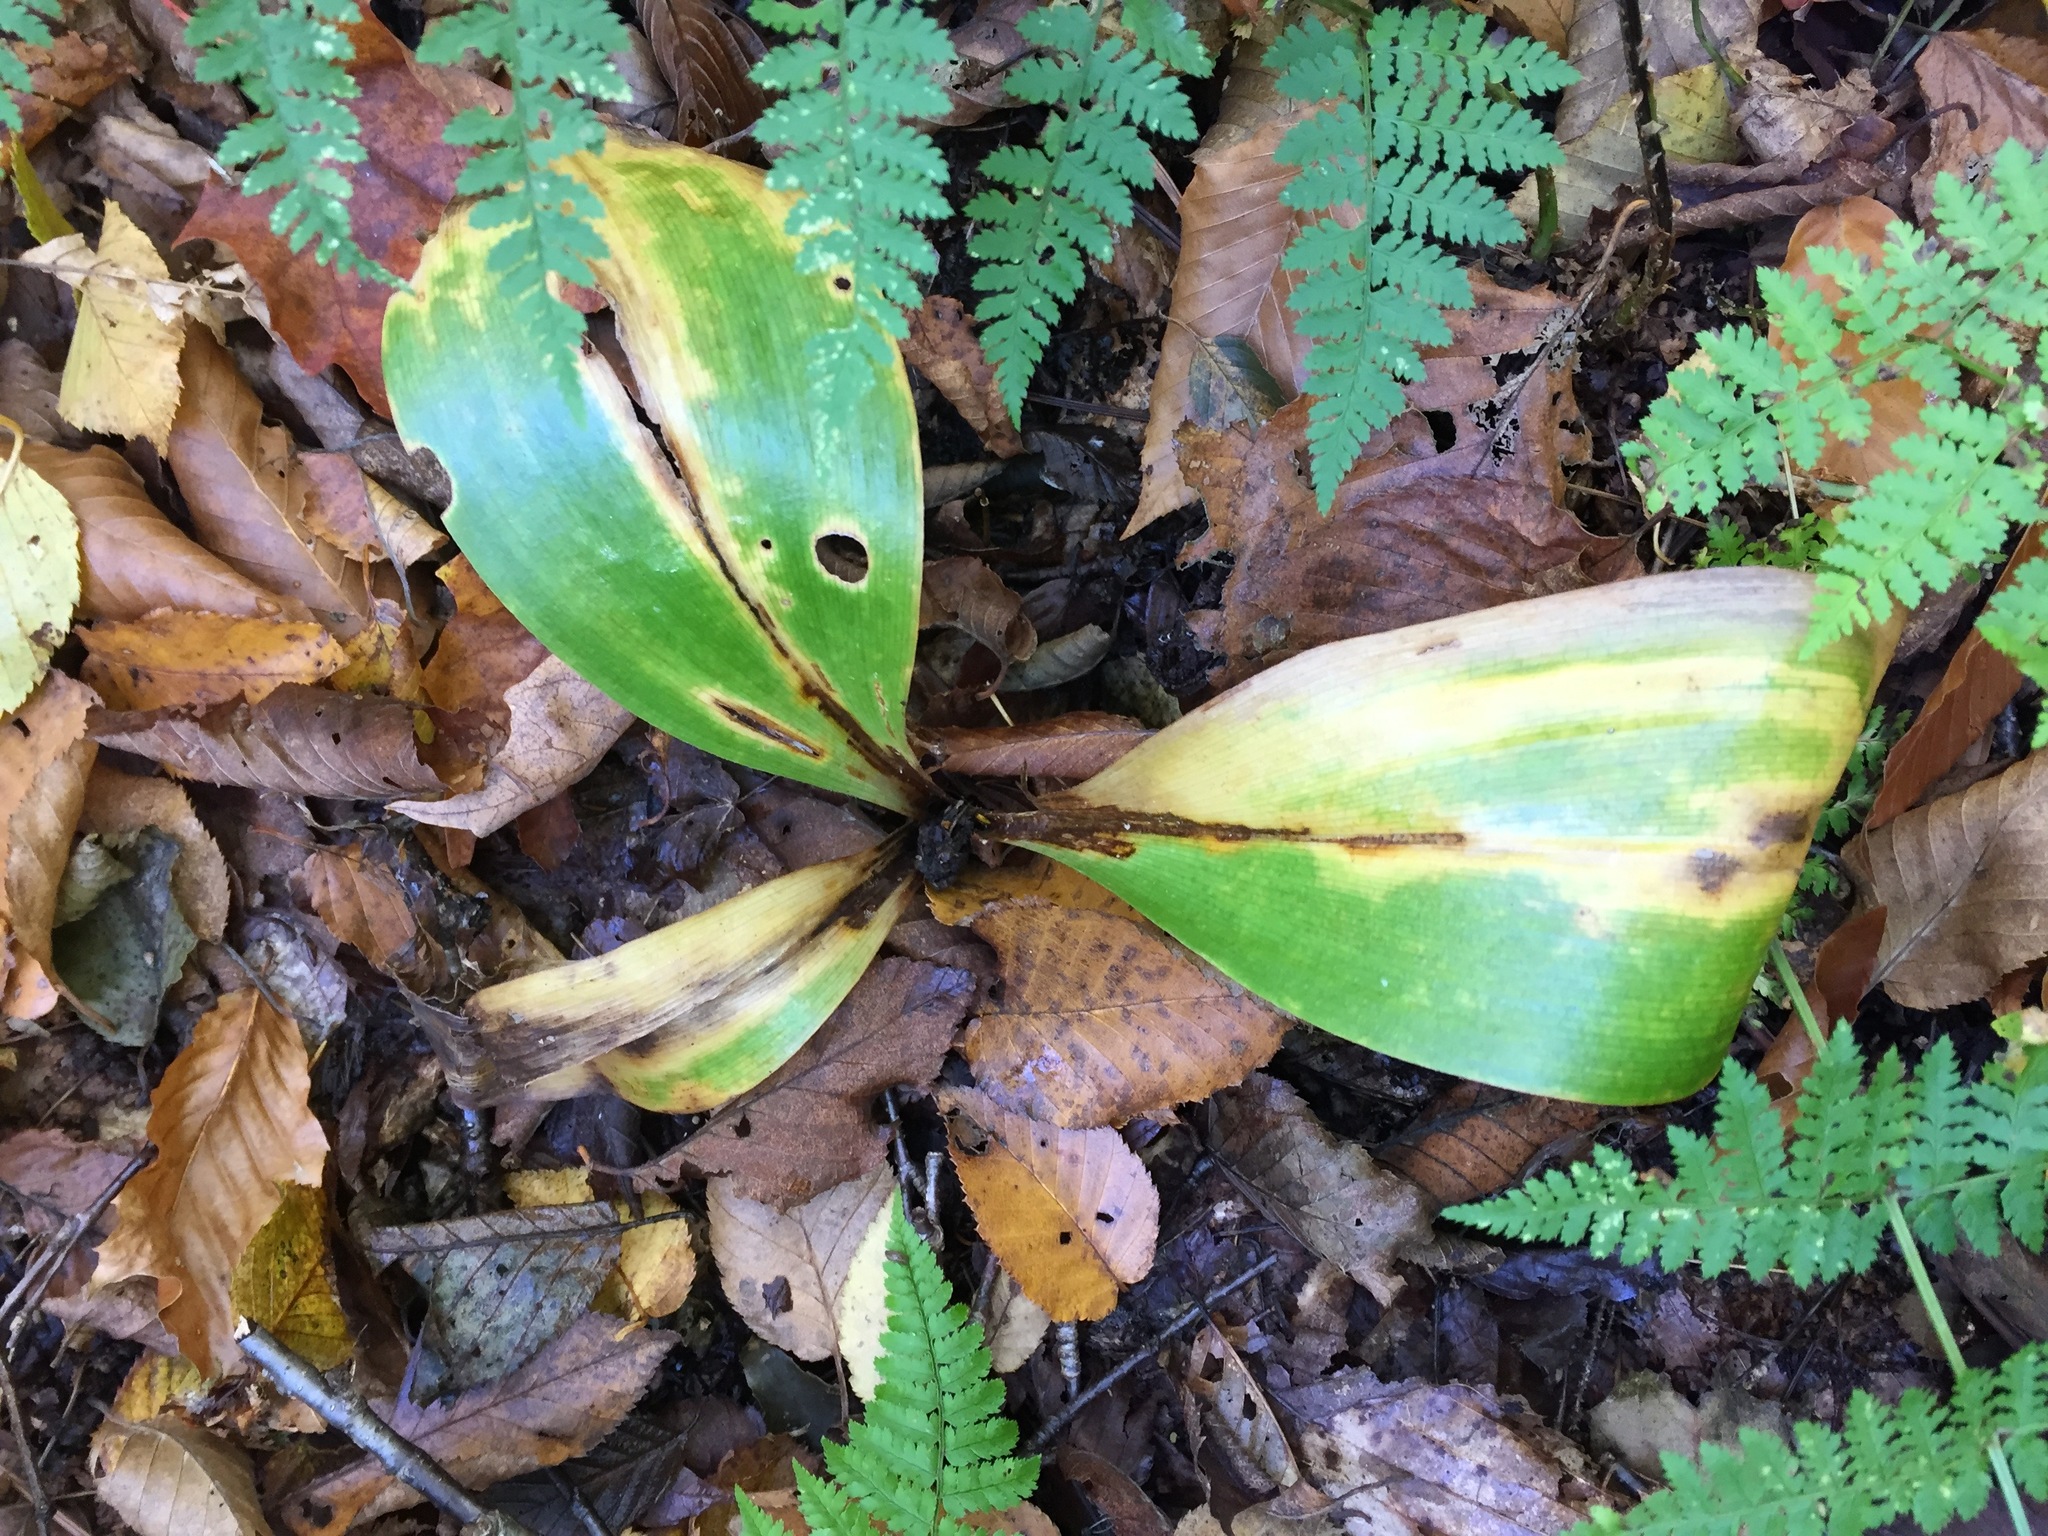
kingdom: Plantae
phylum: Tracheophyta
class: Liliopsida
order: Liliales
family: Liliaceae
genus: Clintonia
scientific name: Clintonia borealis
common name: Yellow clintonia
